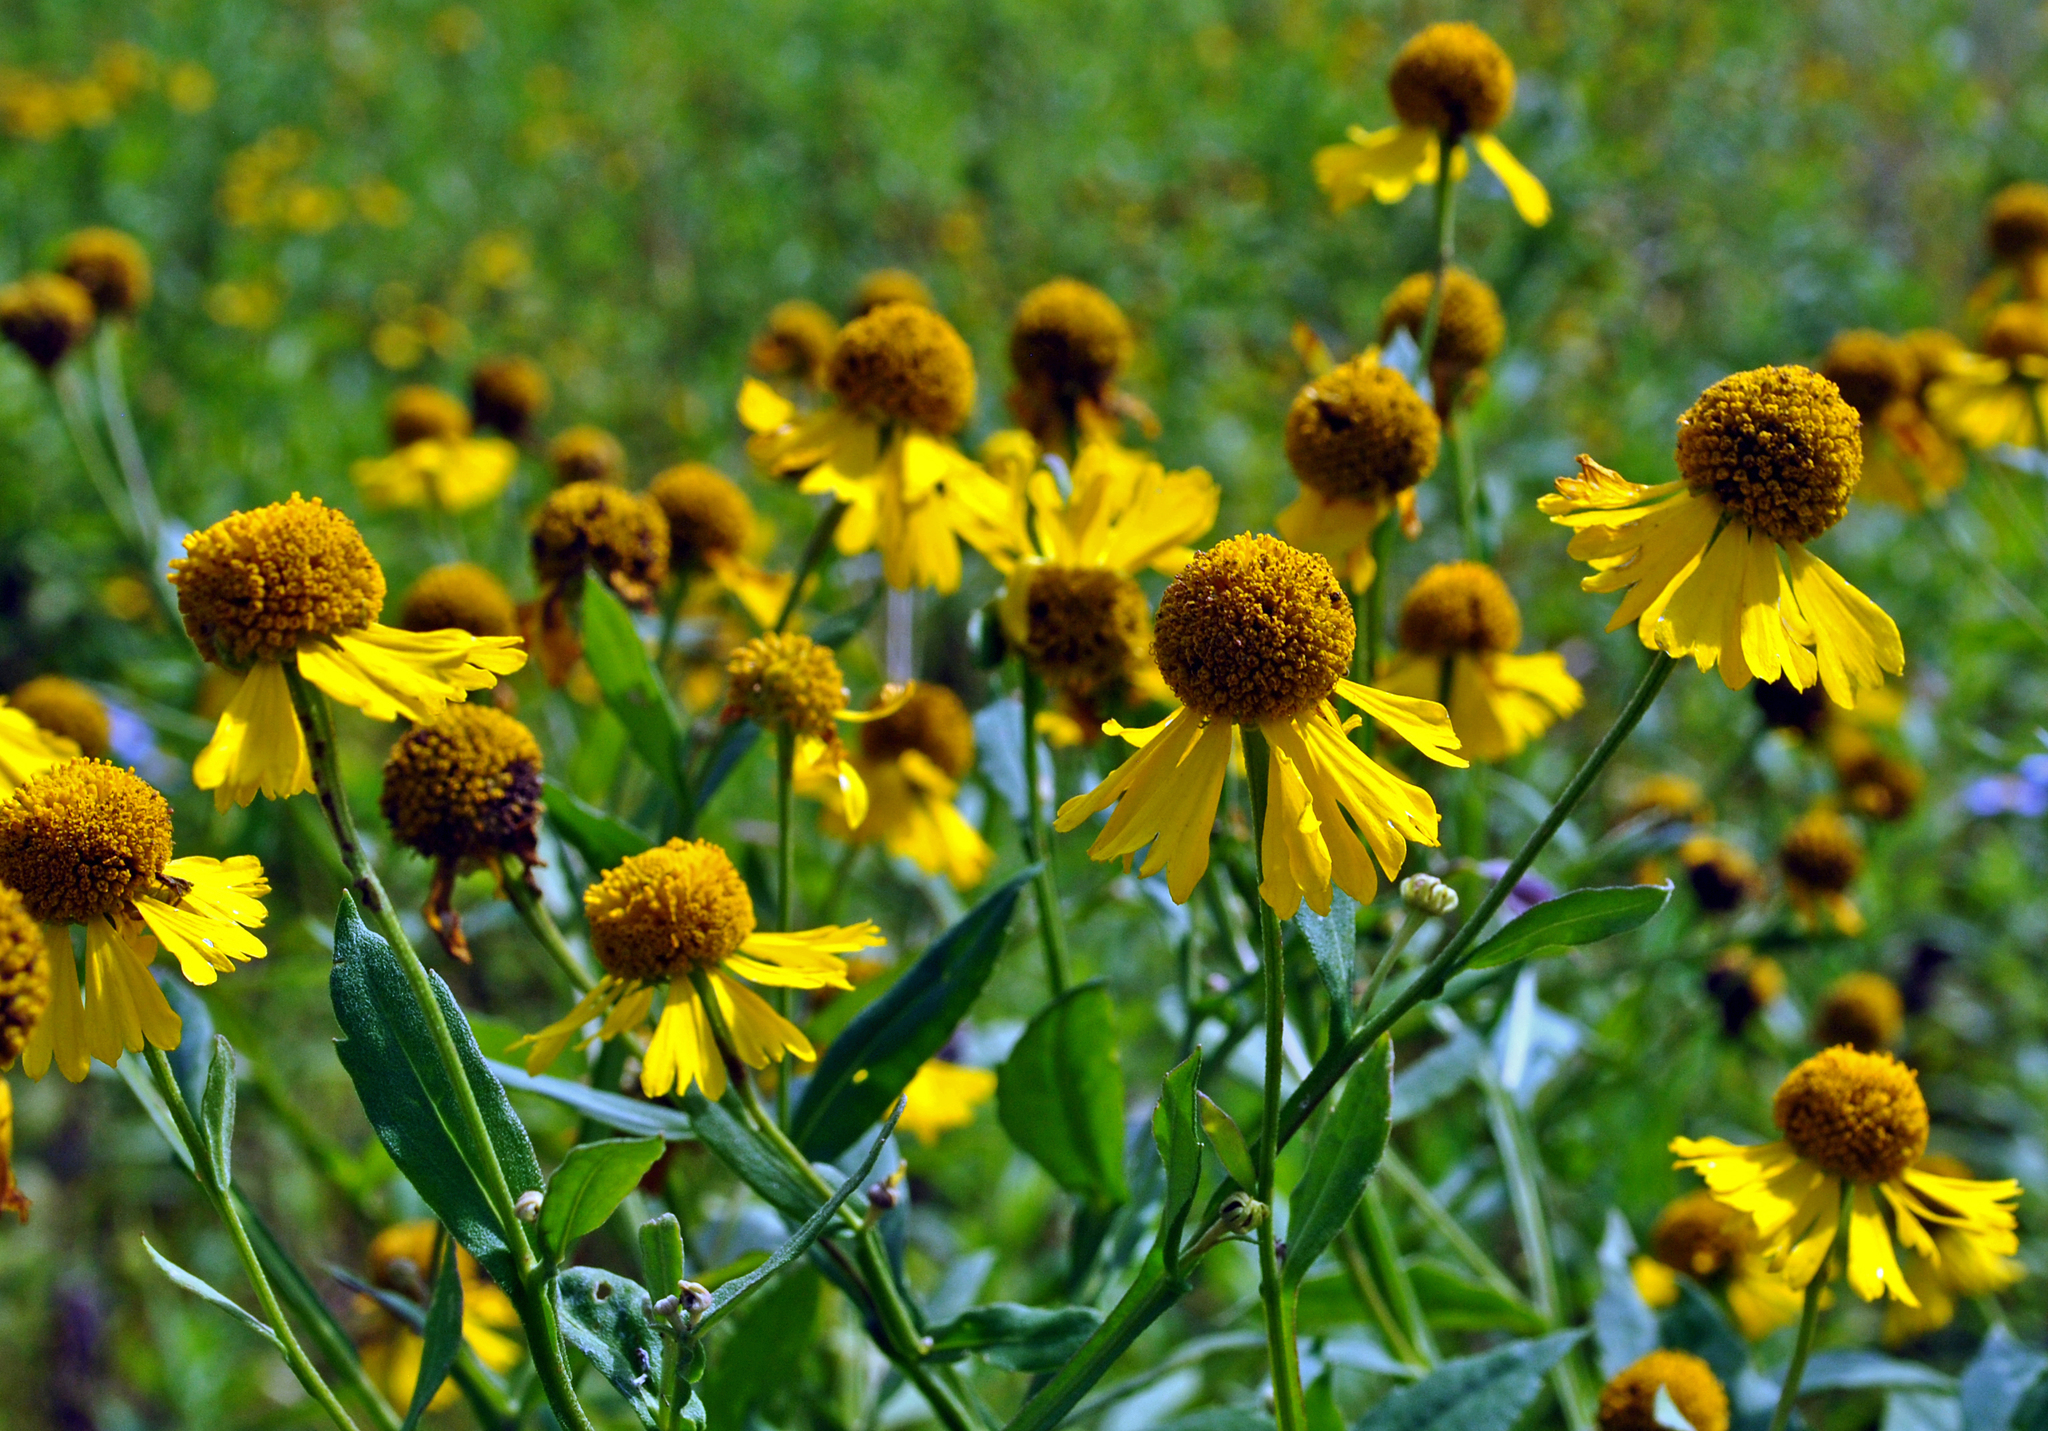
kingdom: Plantae
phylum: Tracheophyta
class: Magnoliopsida
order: Asterales
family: Asteraceae
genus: Helenium
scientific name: Helenium autumnale
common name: Sneezeweed
